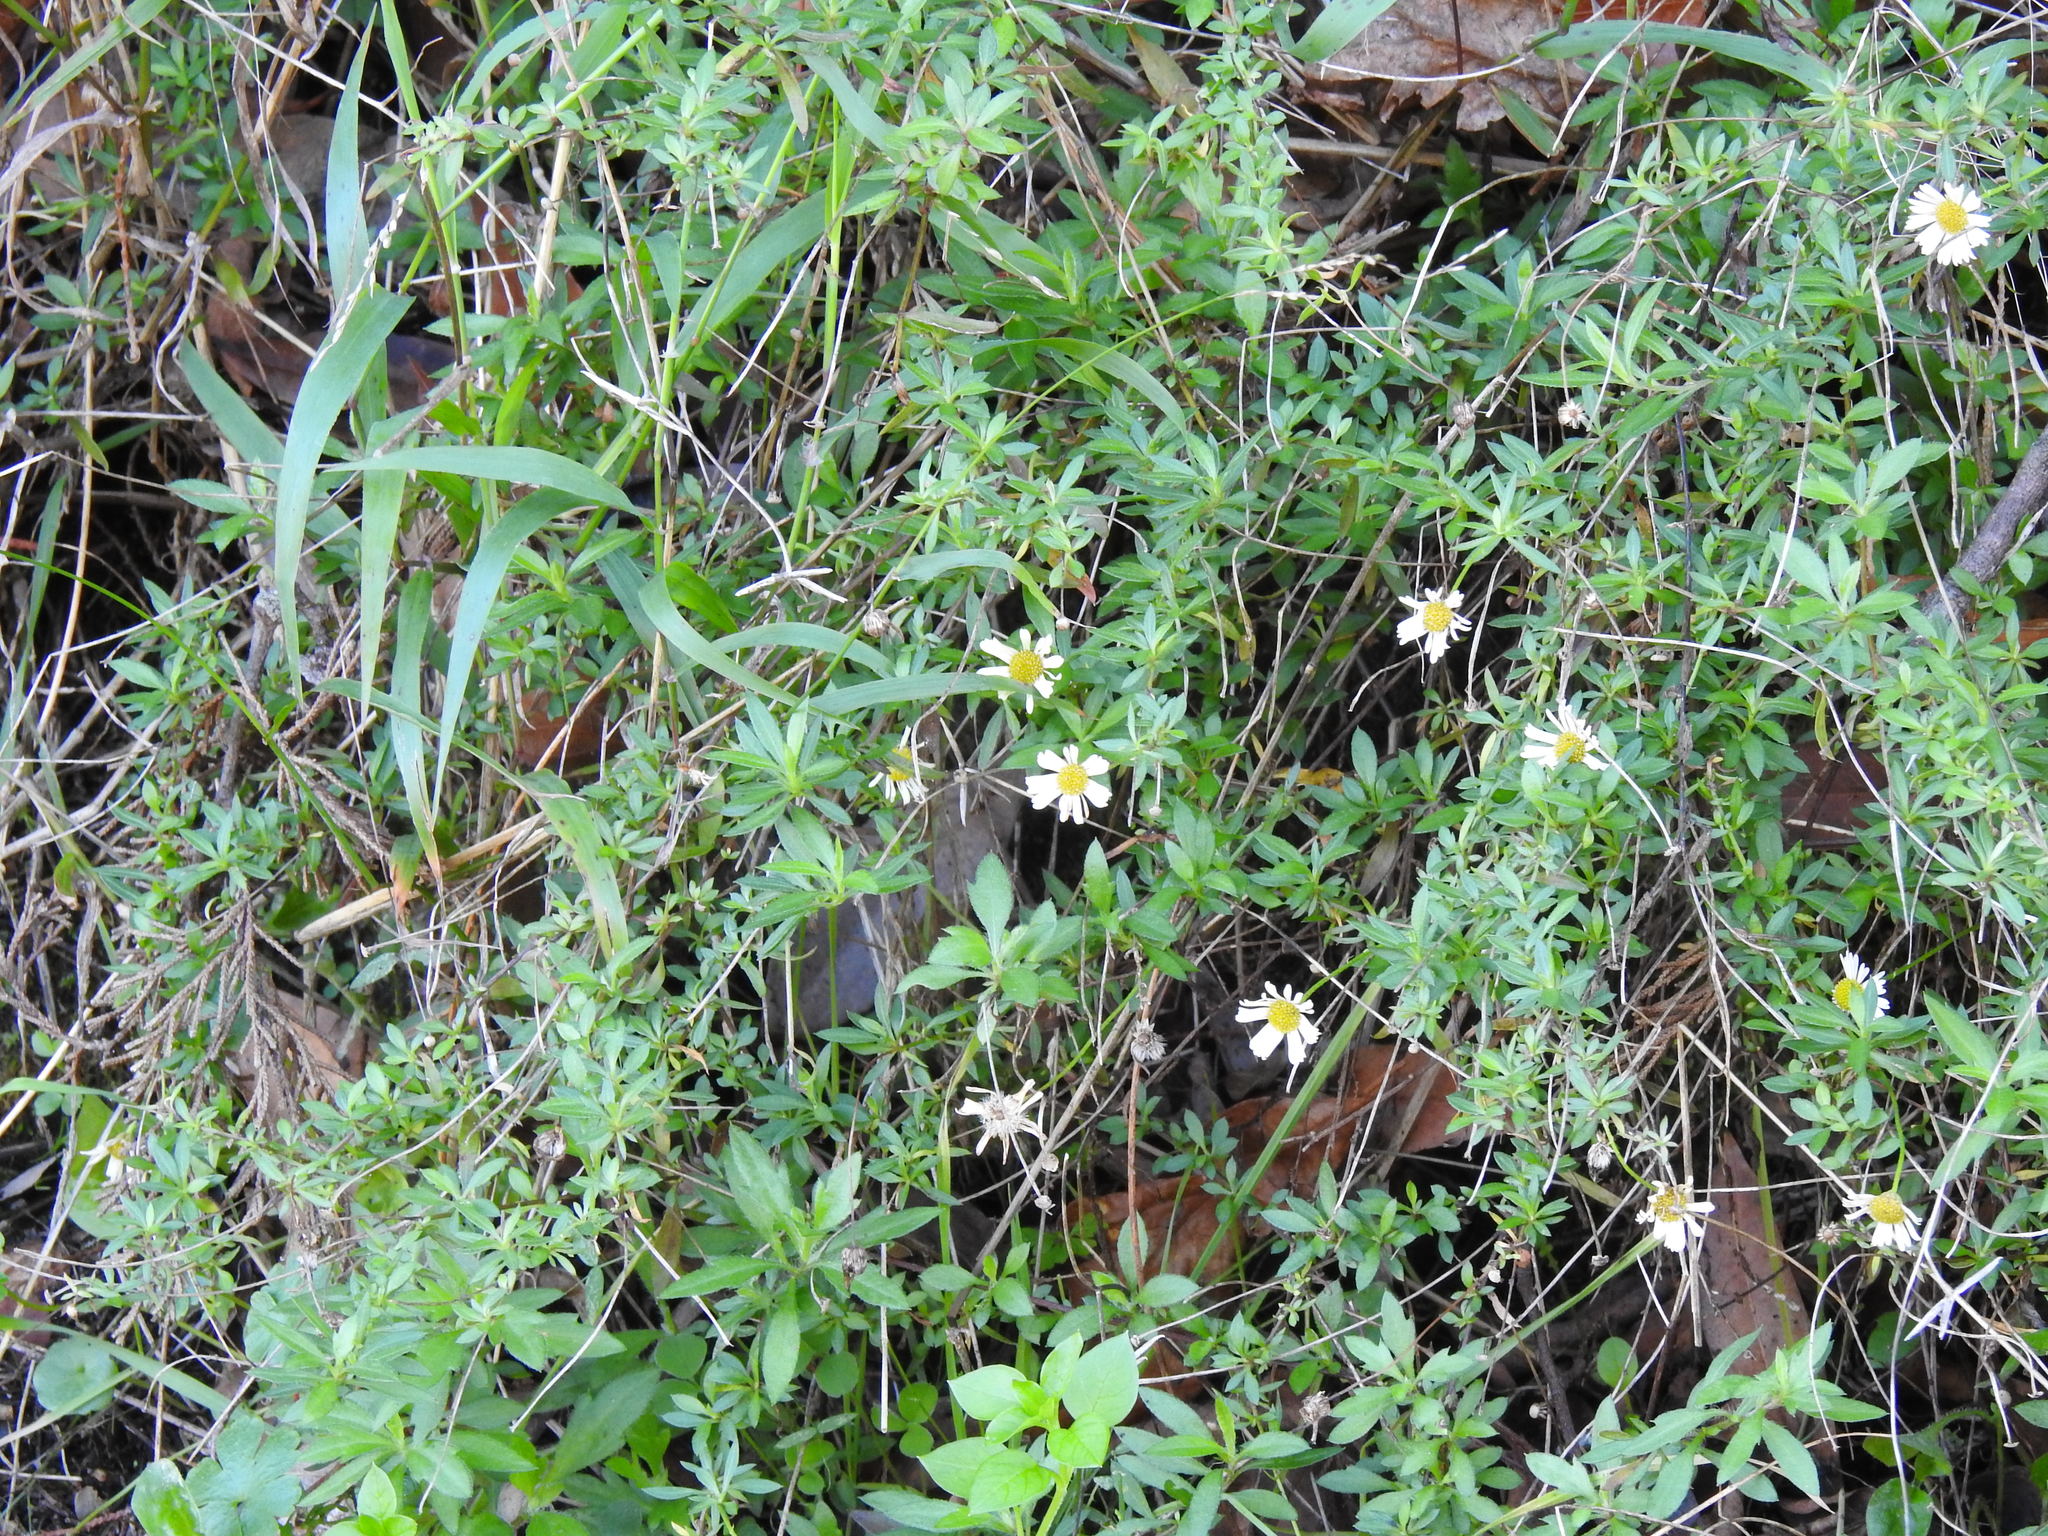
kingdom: Plantae
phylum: Tracheophyta
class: Magnoliopsida
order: Asterales
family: Asteraceae
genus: Erigeron
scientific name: Erigeron karvinskianus
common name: Mexican fleabane
